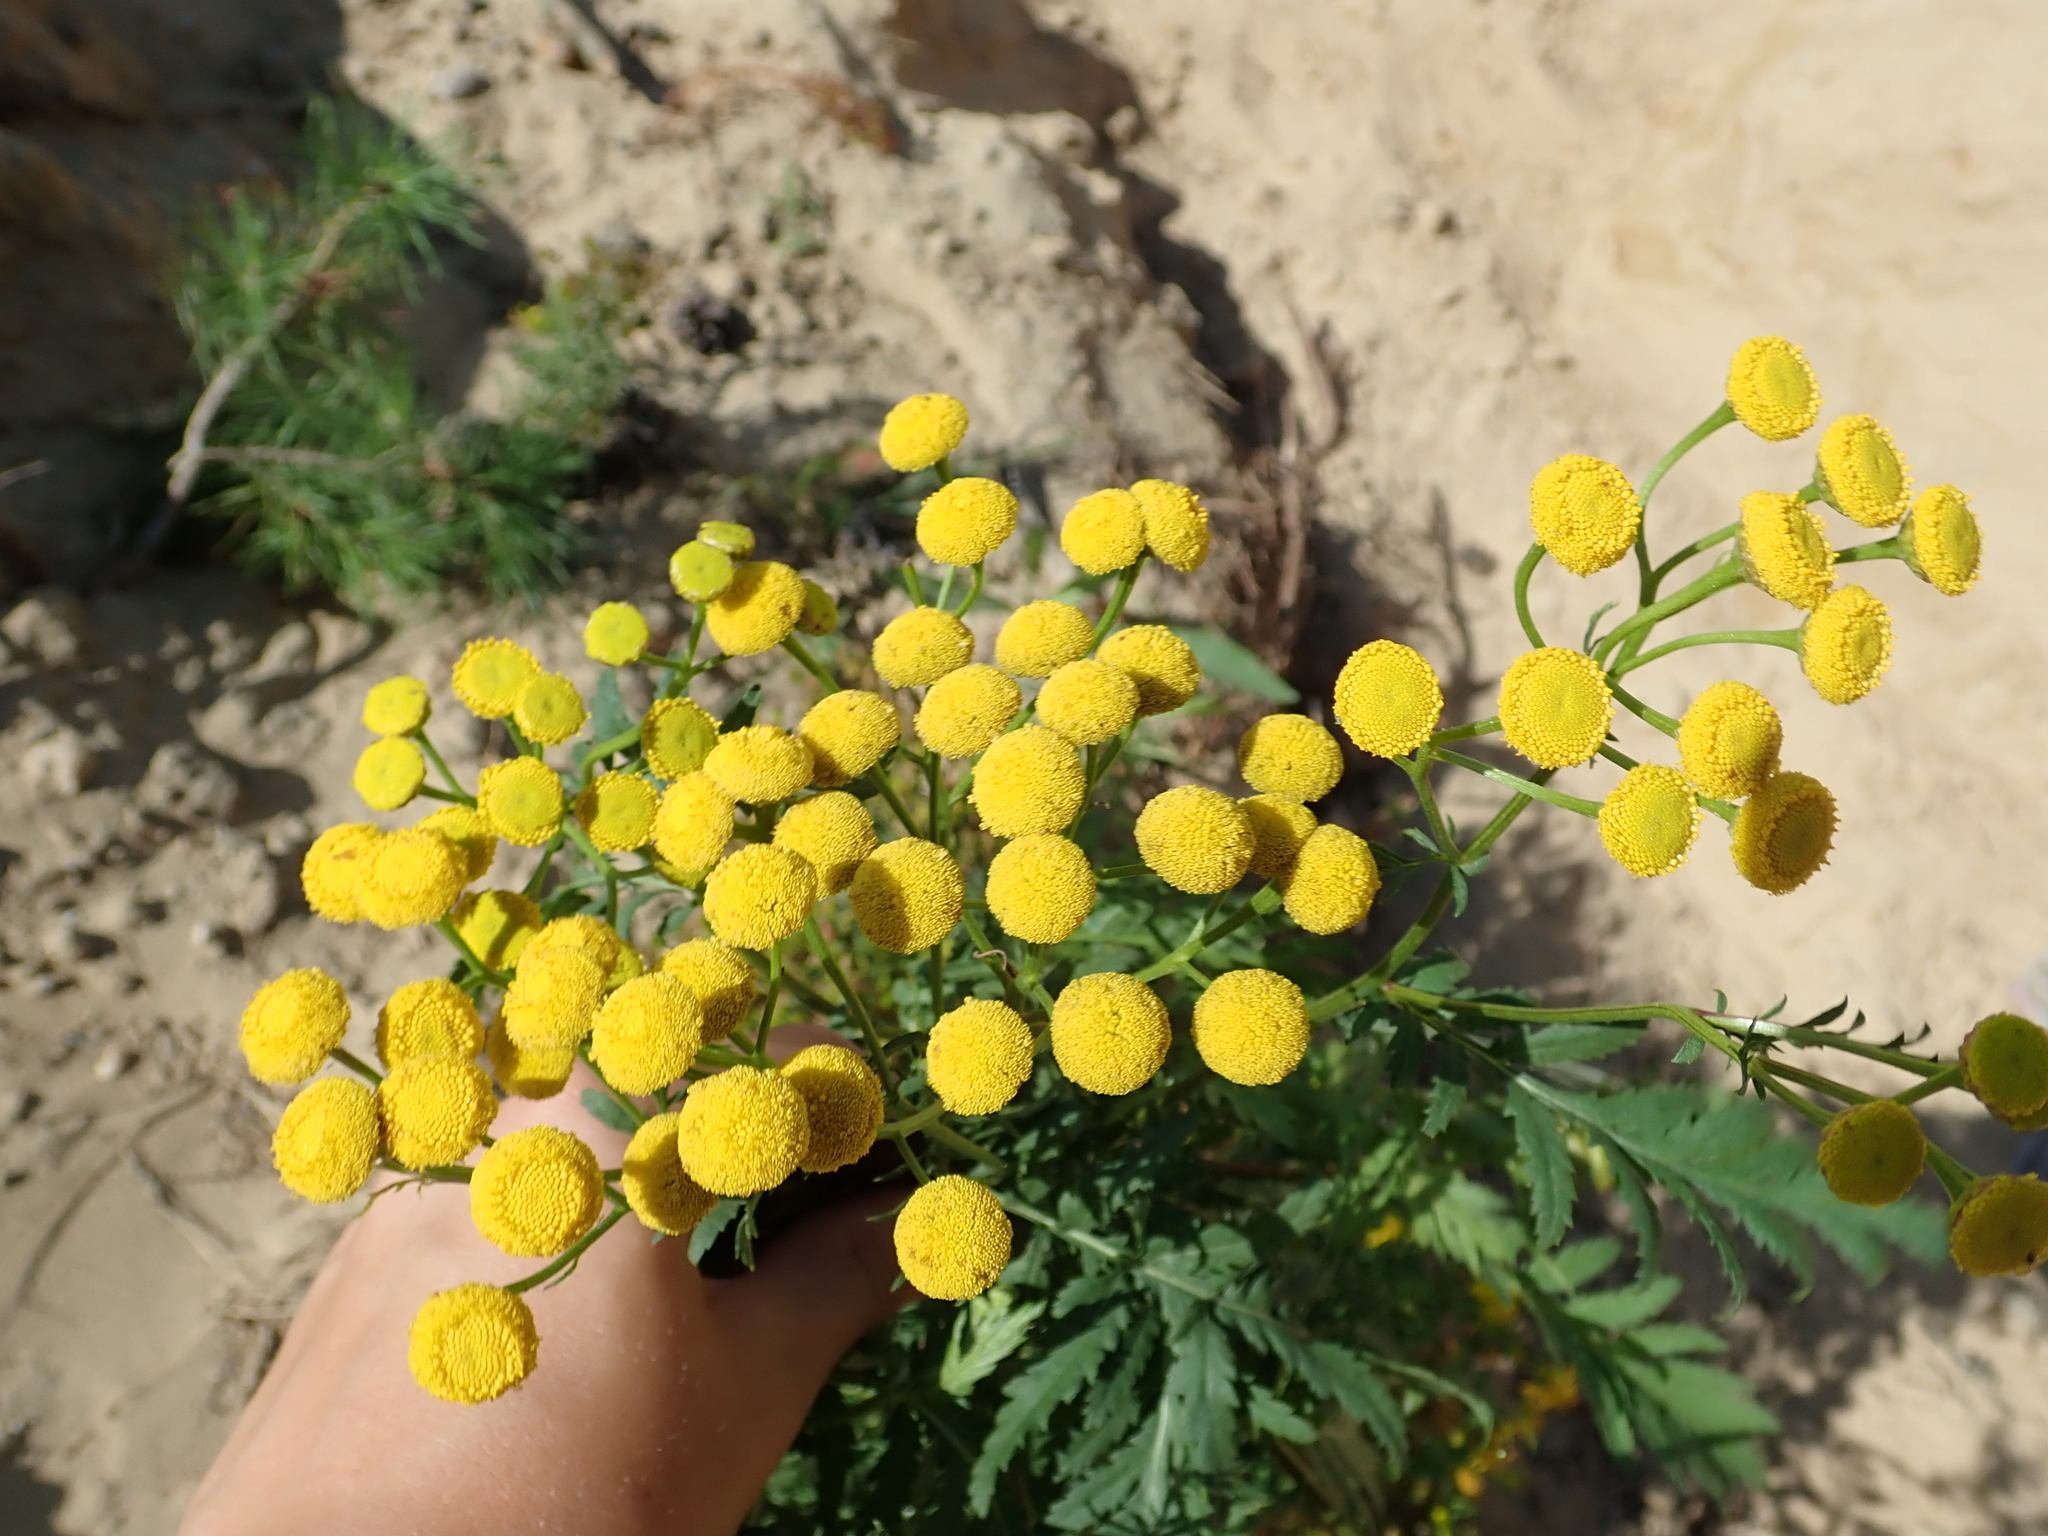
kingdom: Plantae
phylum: Tracheophyta
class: Magnoliopsida
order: Asterales
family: Asteraceae
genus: Tanacetum
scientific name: Tanacetum vulgare
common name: Common tansy
